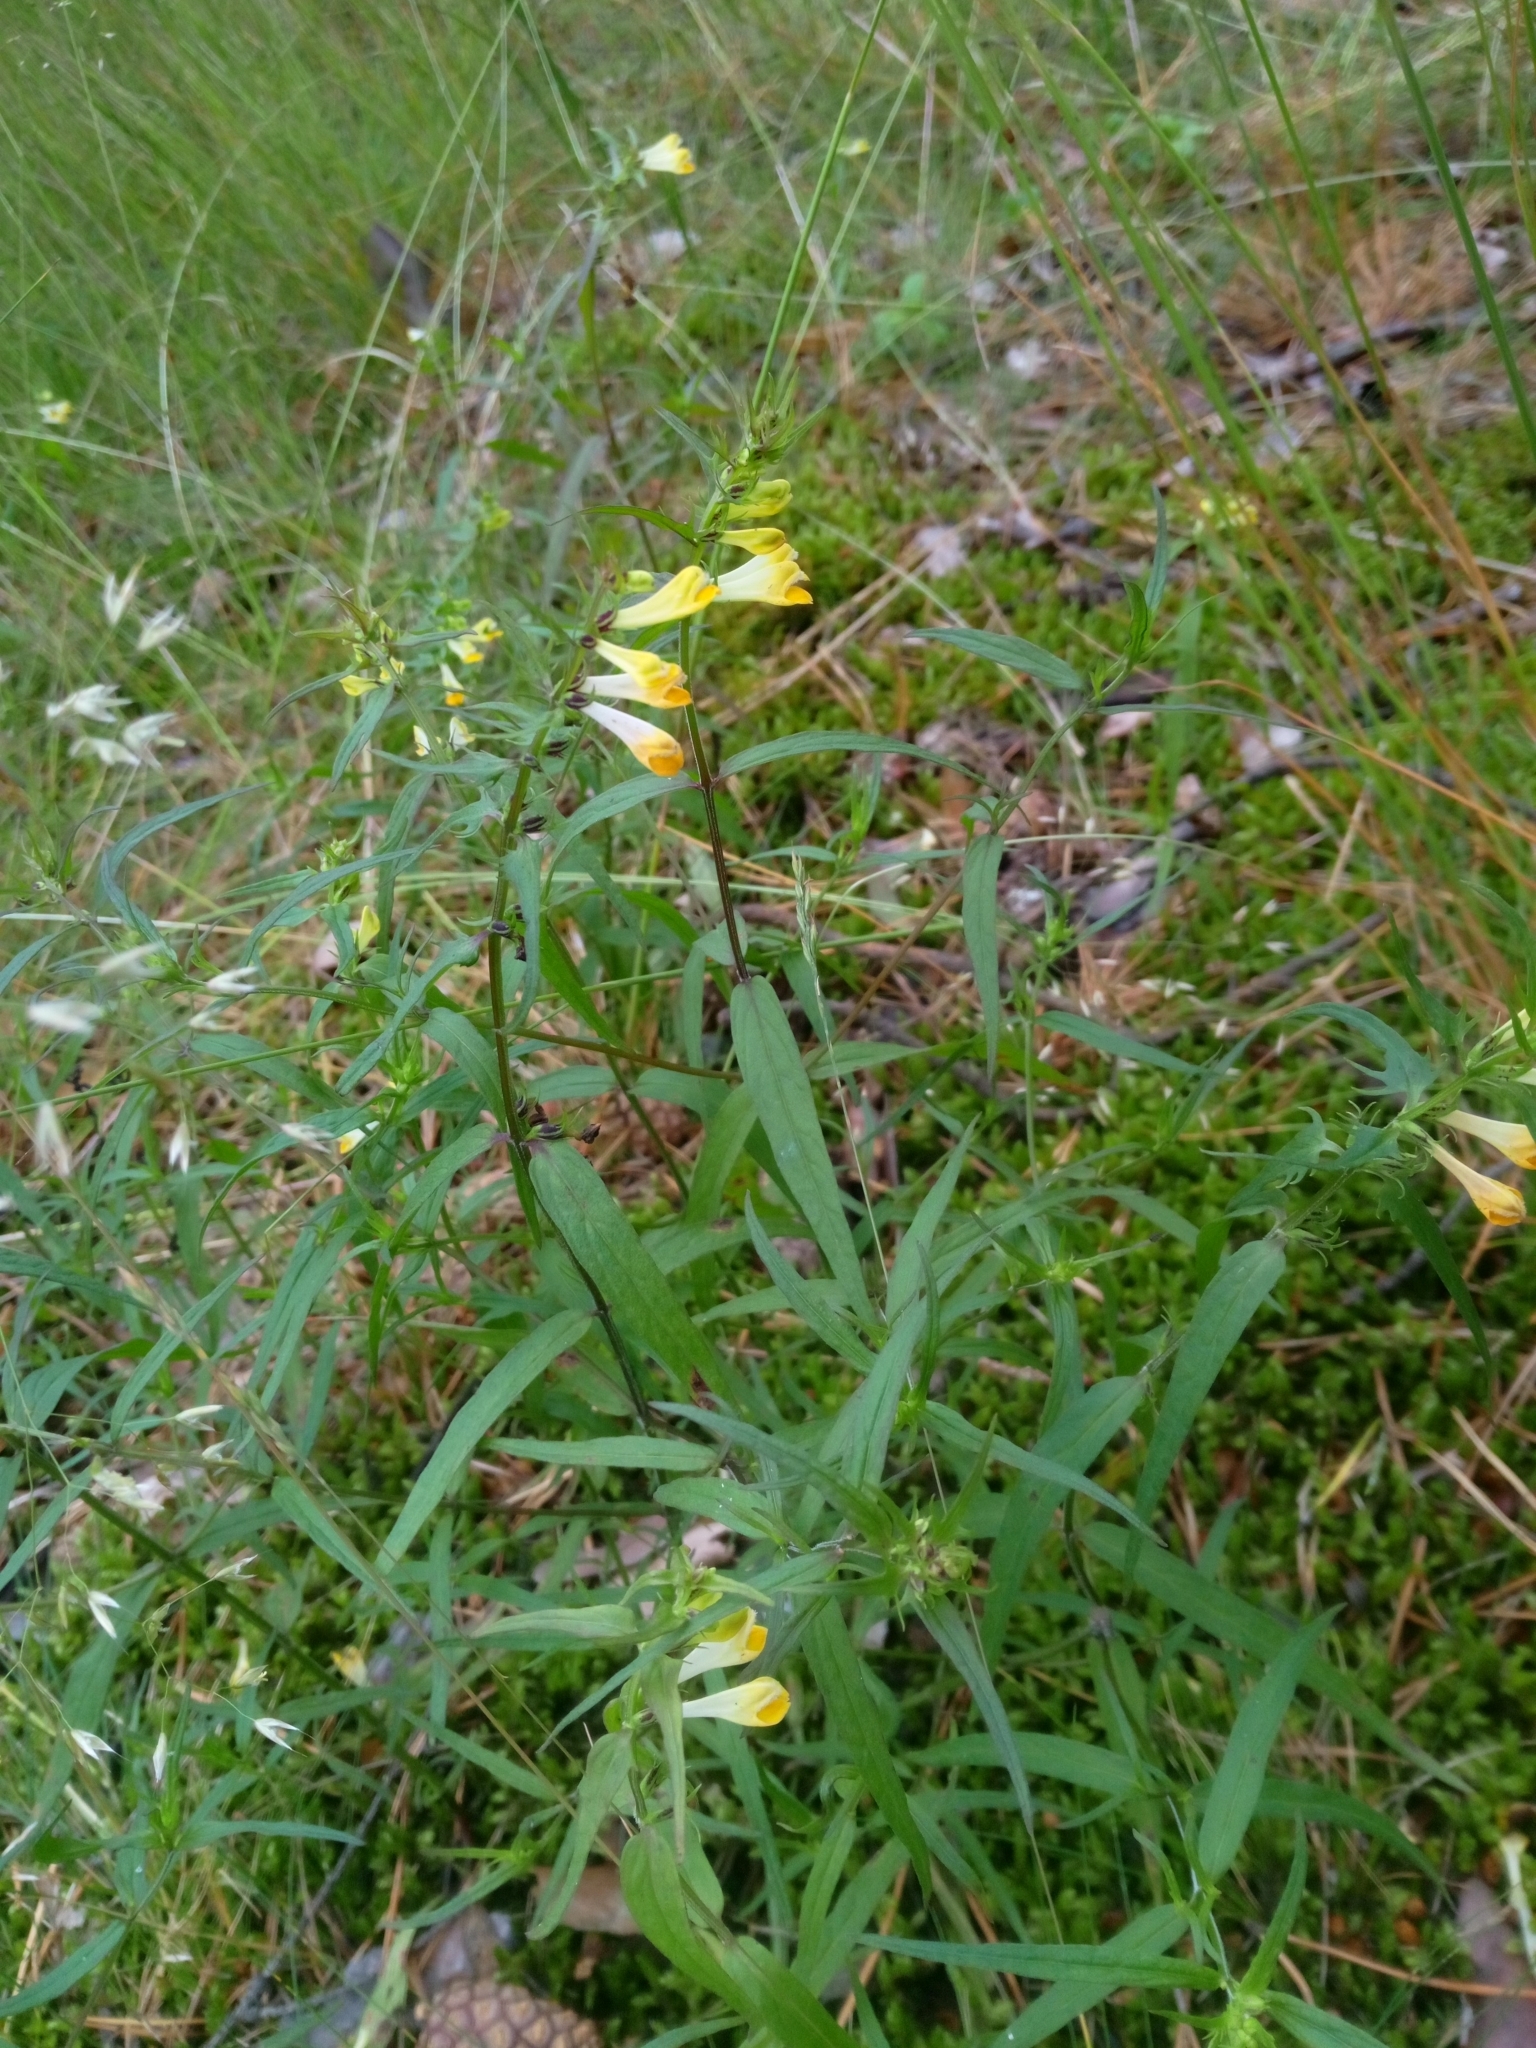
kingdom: Plantae
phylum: Tracheophyta
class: Magnoliopsida
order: Lamiales
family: Orobanchaceae
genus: Melampyrum
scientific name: Melampyrum pratense
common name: Common cow-wheat
